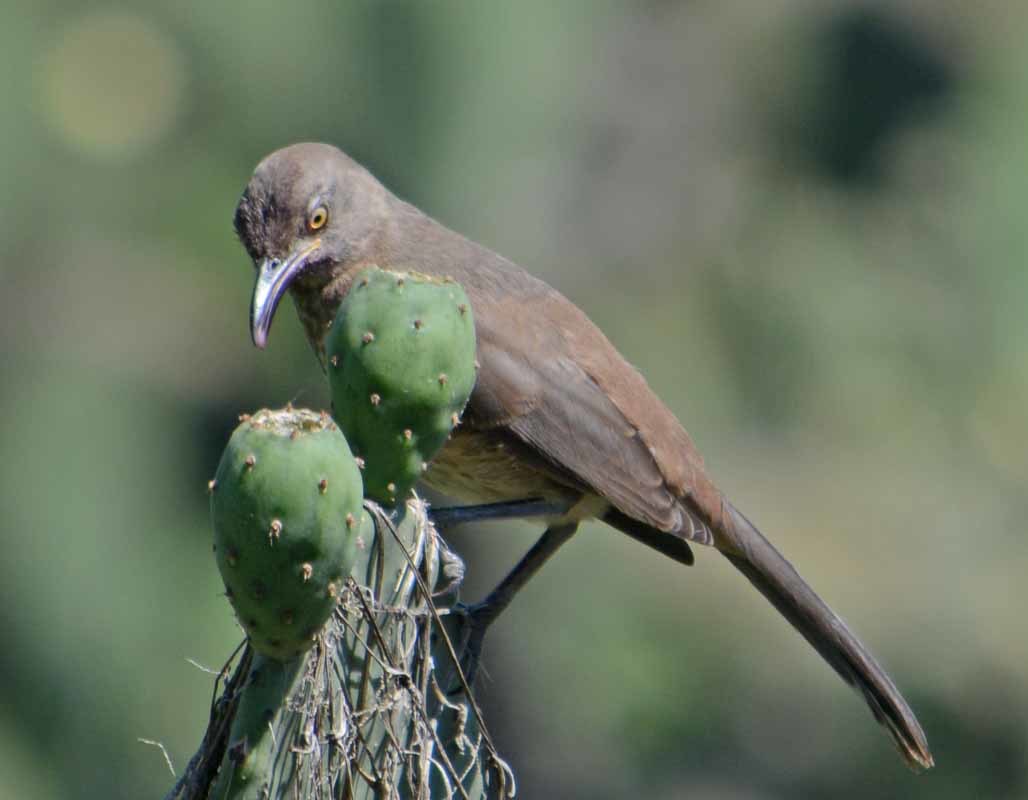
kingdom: Animalia
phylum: Chordata
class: Aves
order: Passeriformes
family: Mimidae
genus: Toxostoma
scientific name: Toxostoma curvirostre
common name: Curve-billed thrasher
